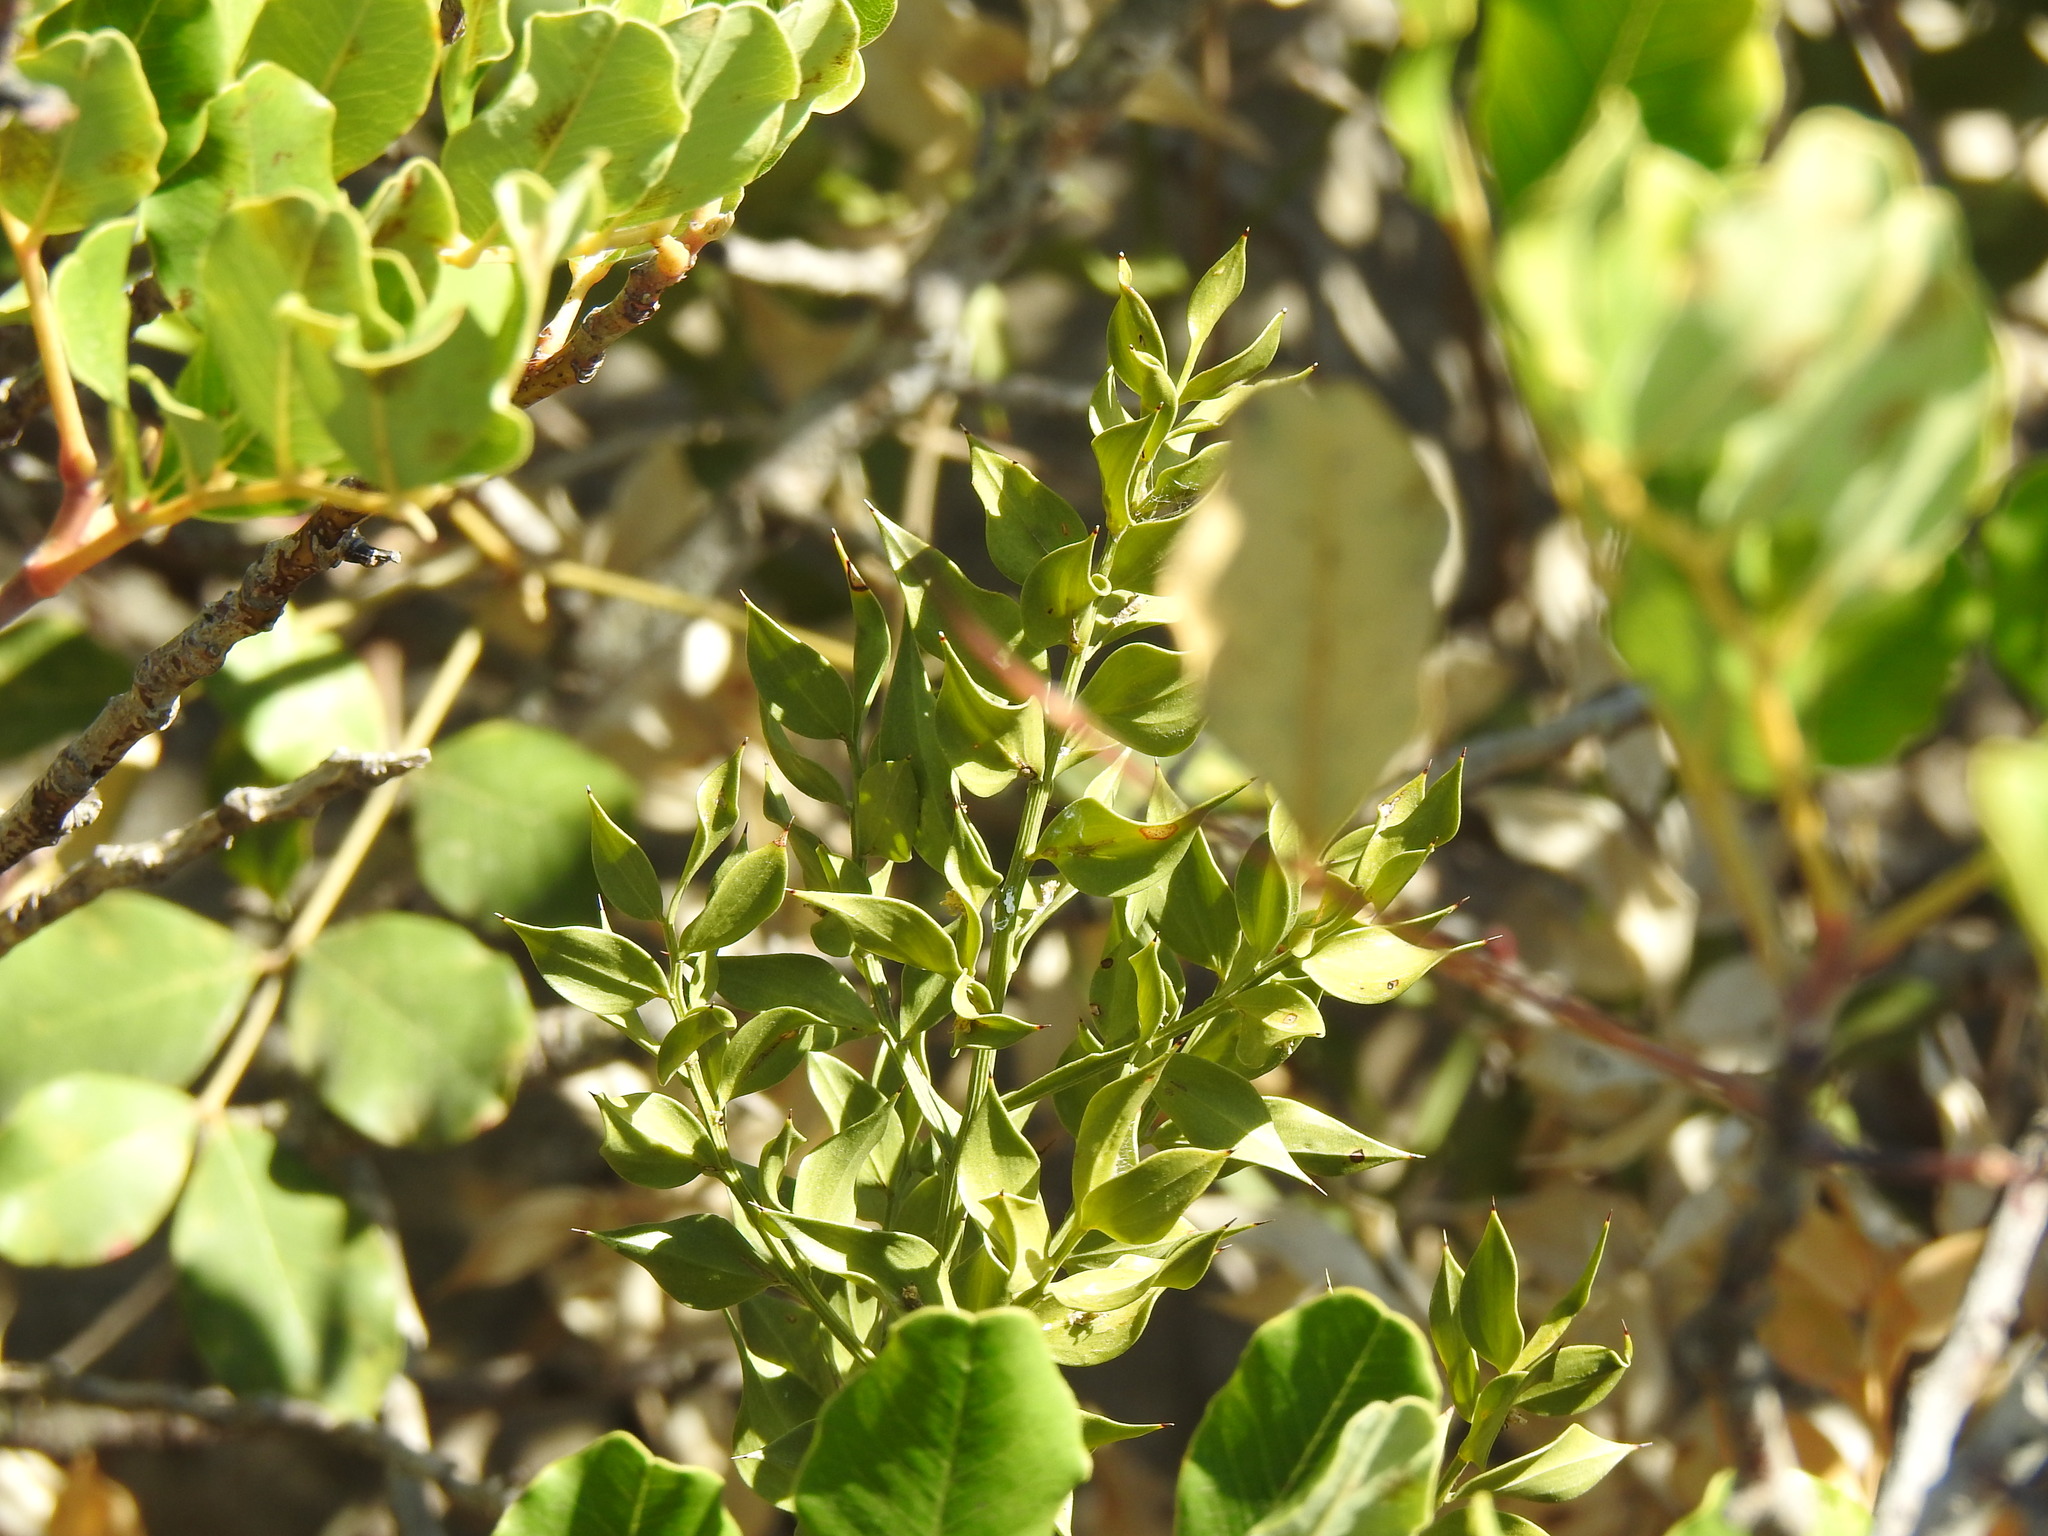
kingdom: Plantae
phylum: Tracheophyta
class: Liliopsida
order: Asparagales
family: Asparagaceae
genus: Ruscus
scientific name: Ruscus aculeatus
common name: Butcher's-broom
